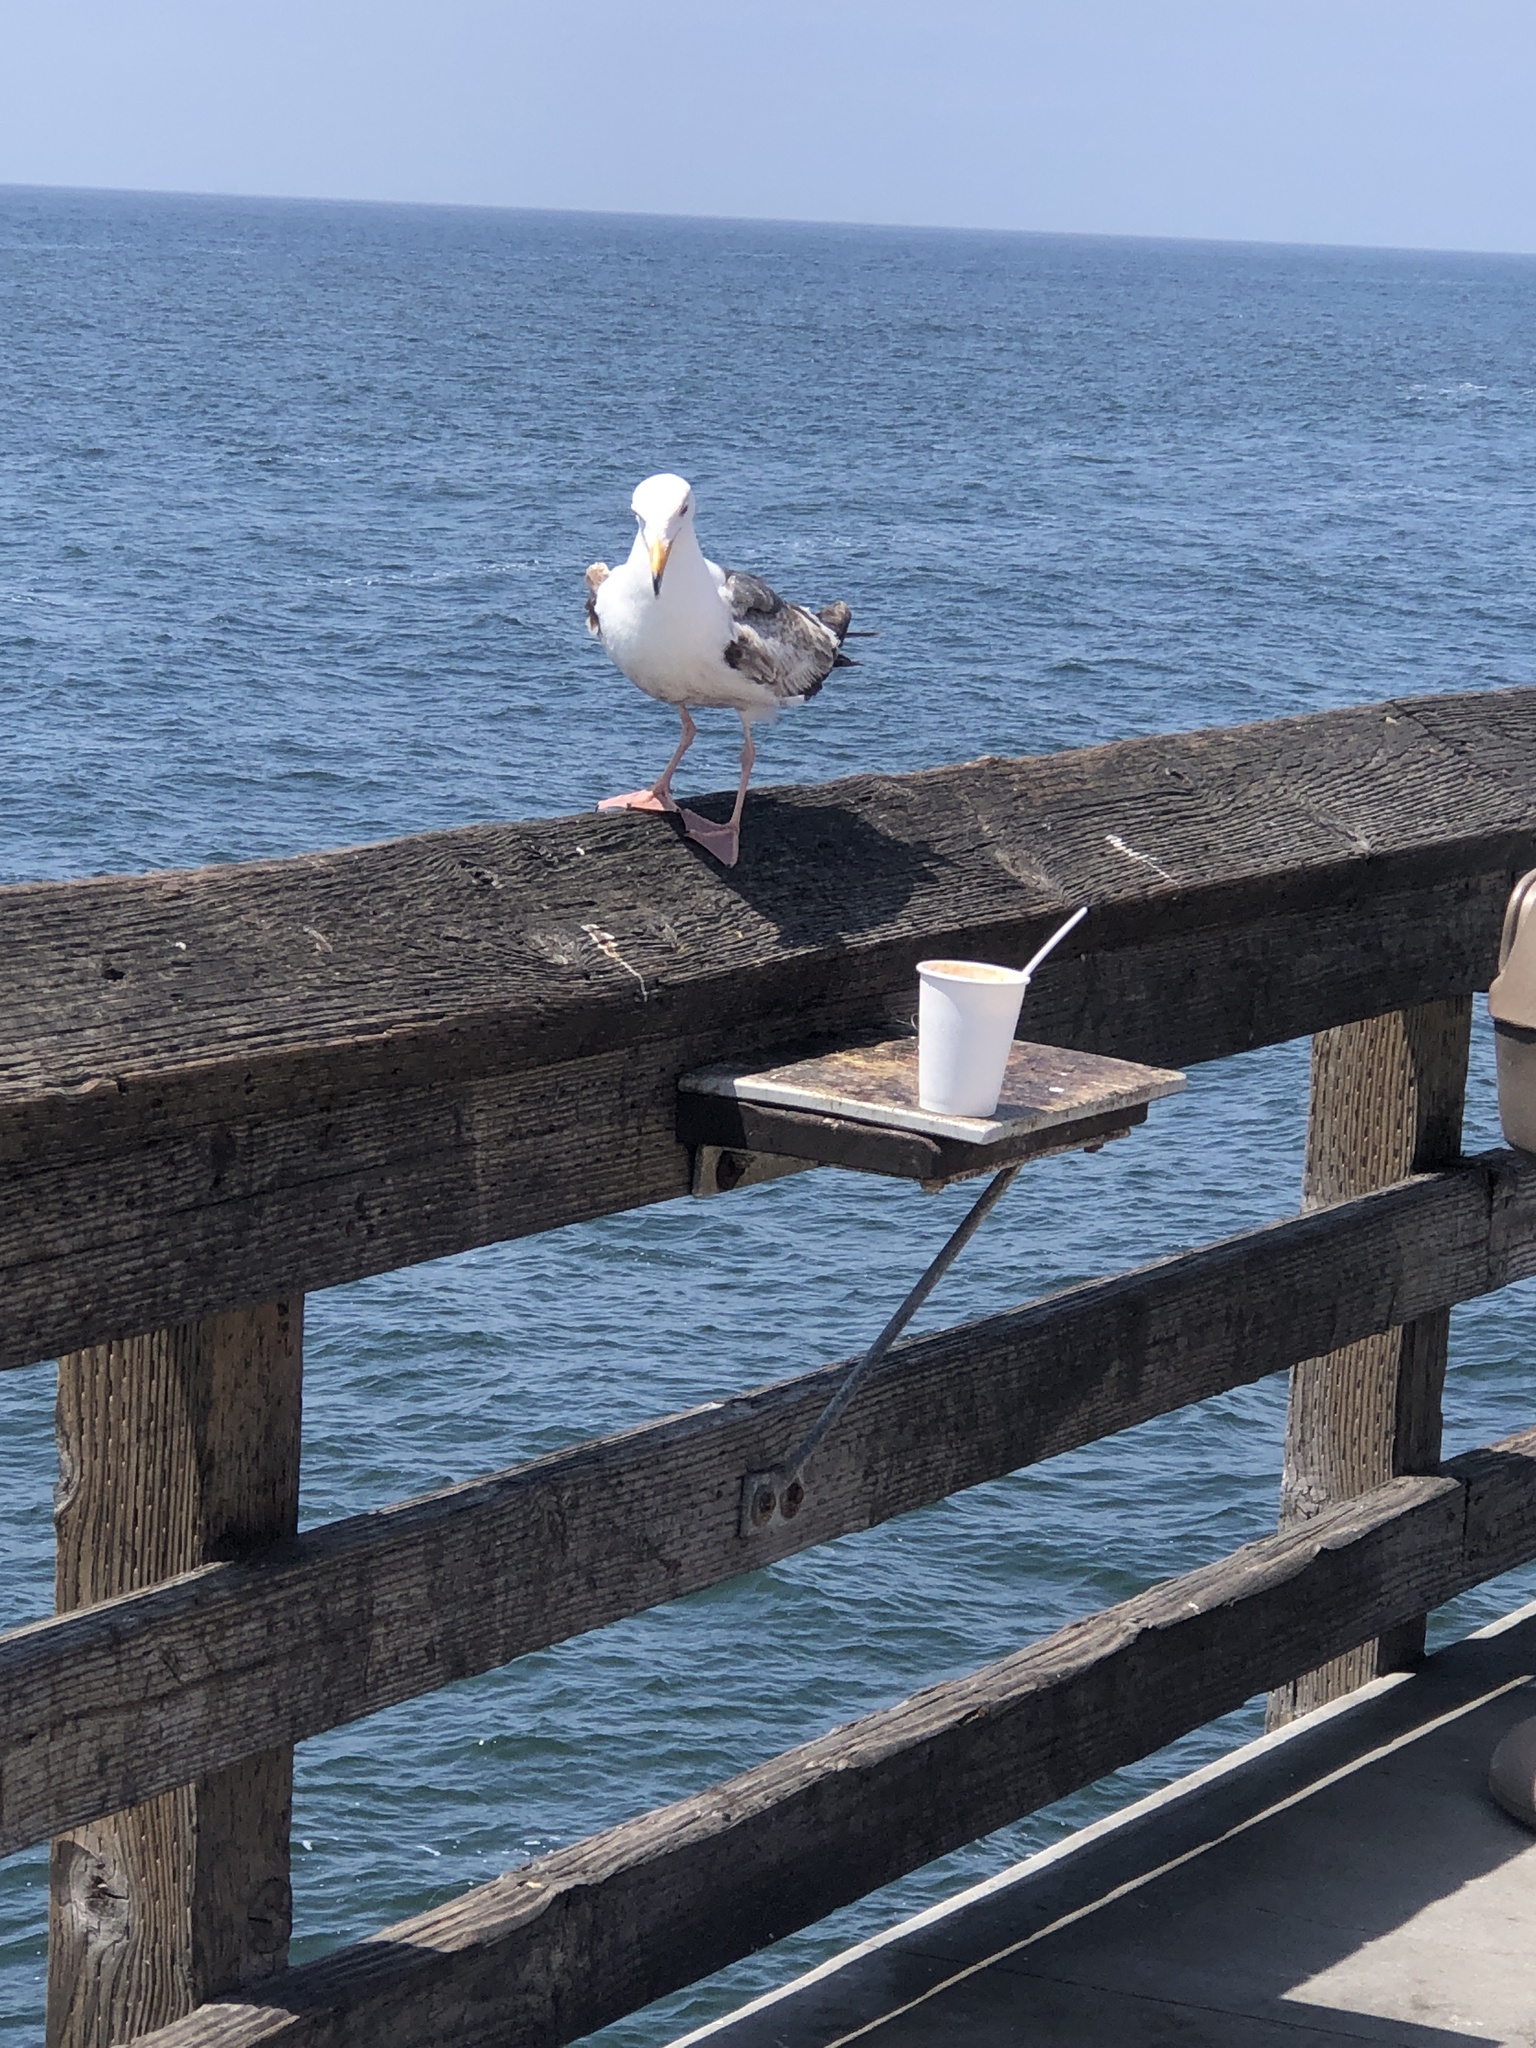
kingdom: Animalia
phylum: Chordata
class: Aves
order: Charadriiformes
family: Laridae
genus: Larus
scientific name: Larus occidentalis
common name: Western gull
